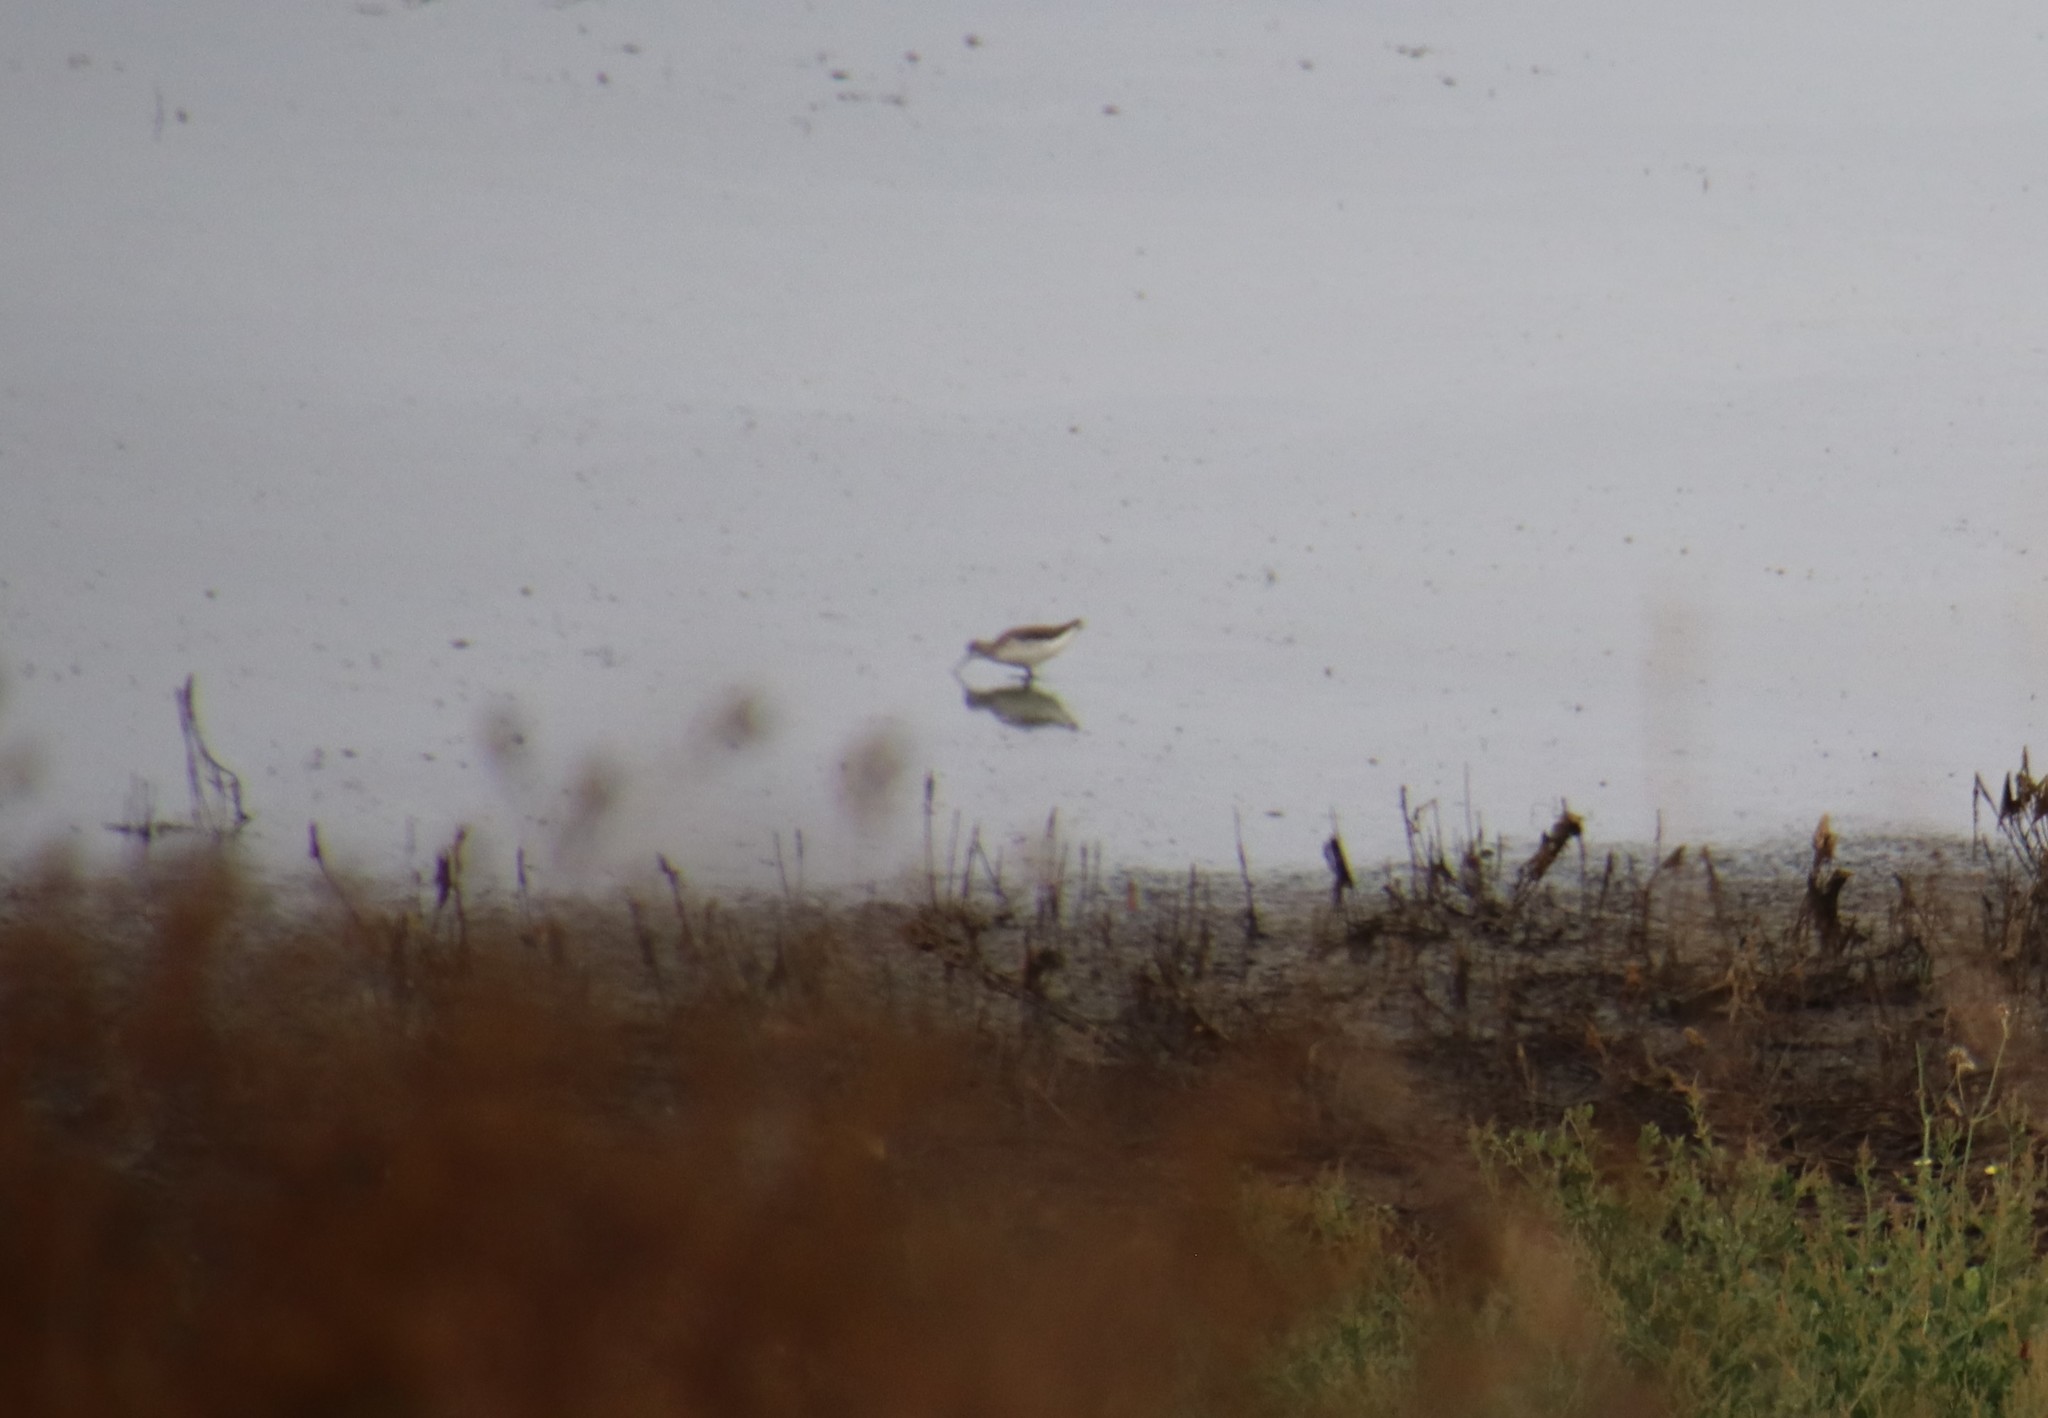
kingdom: Animalia
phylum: Chordata
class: Aves
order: Charadriiformes
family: Scolopacidae
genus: Phalaropus
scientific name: Phalaropus tricolor
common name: Wilson's phalarope
